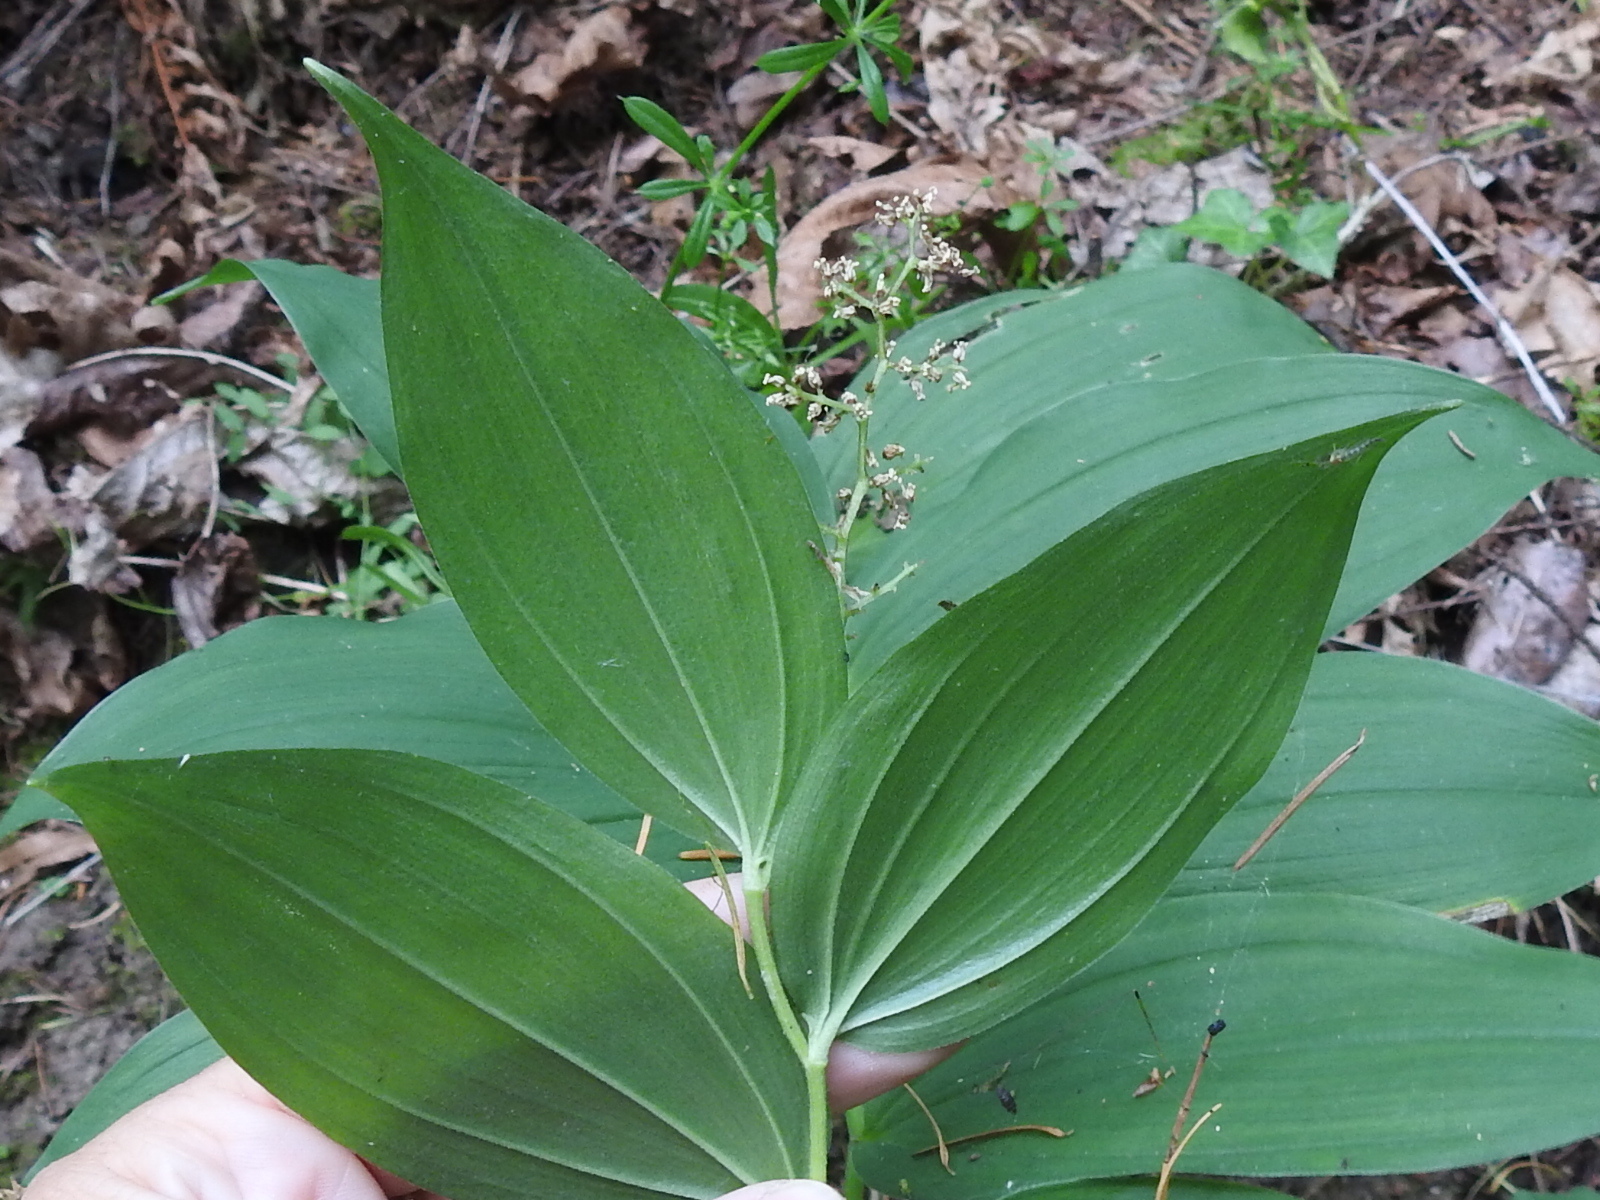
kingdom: Plantae
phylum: Tracheophyta
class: Liliopsida
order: Asparagales
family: Asparagaceae
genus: Maianthemum
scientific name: Maianthemum racemosum
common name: False spikenard
